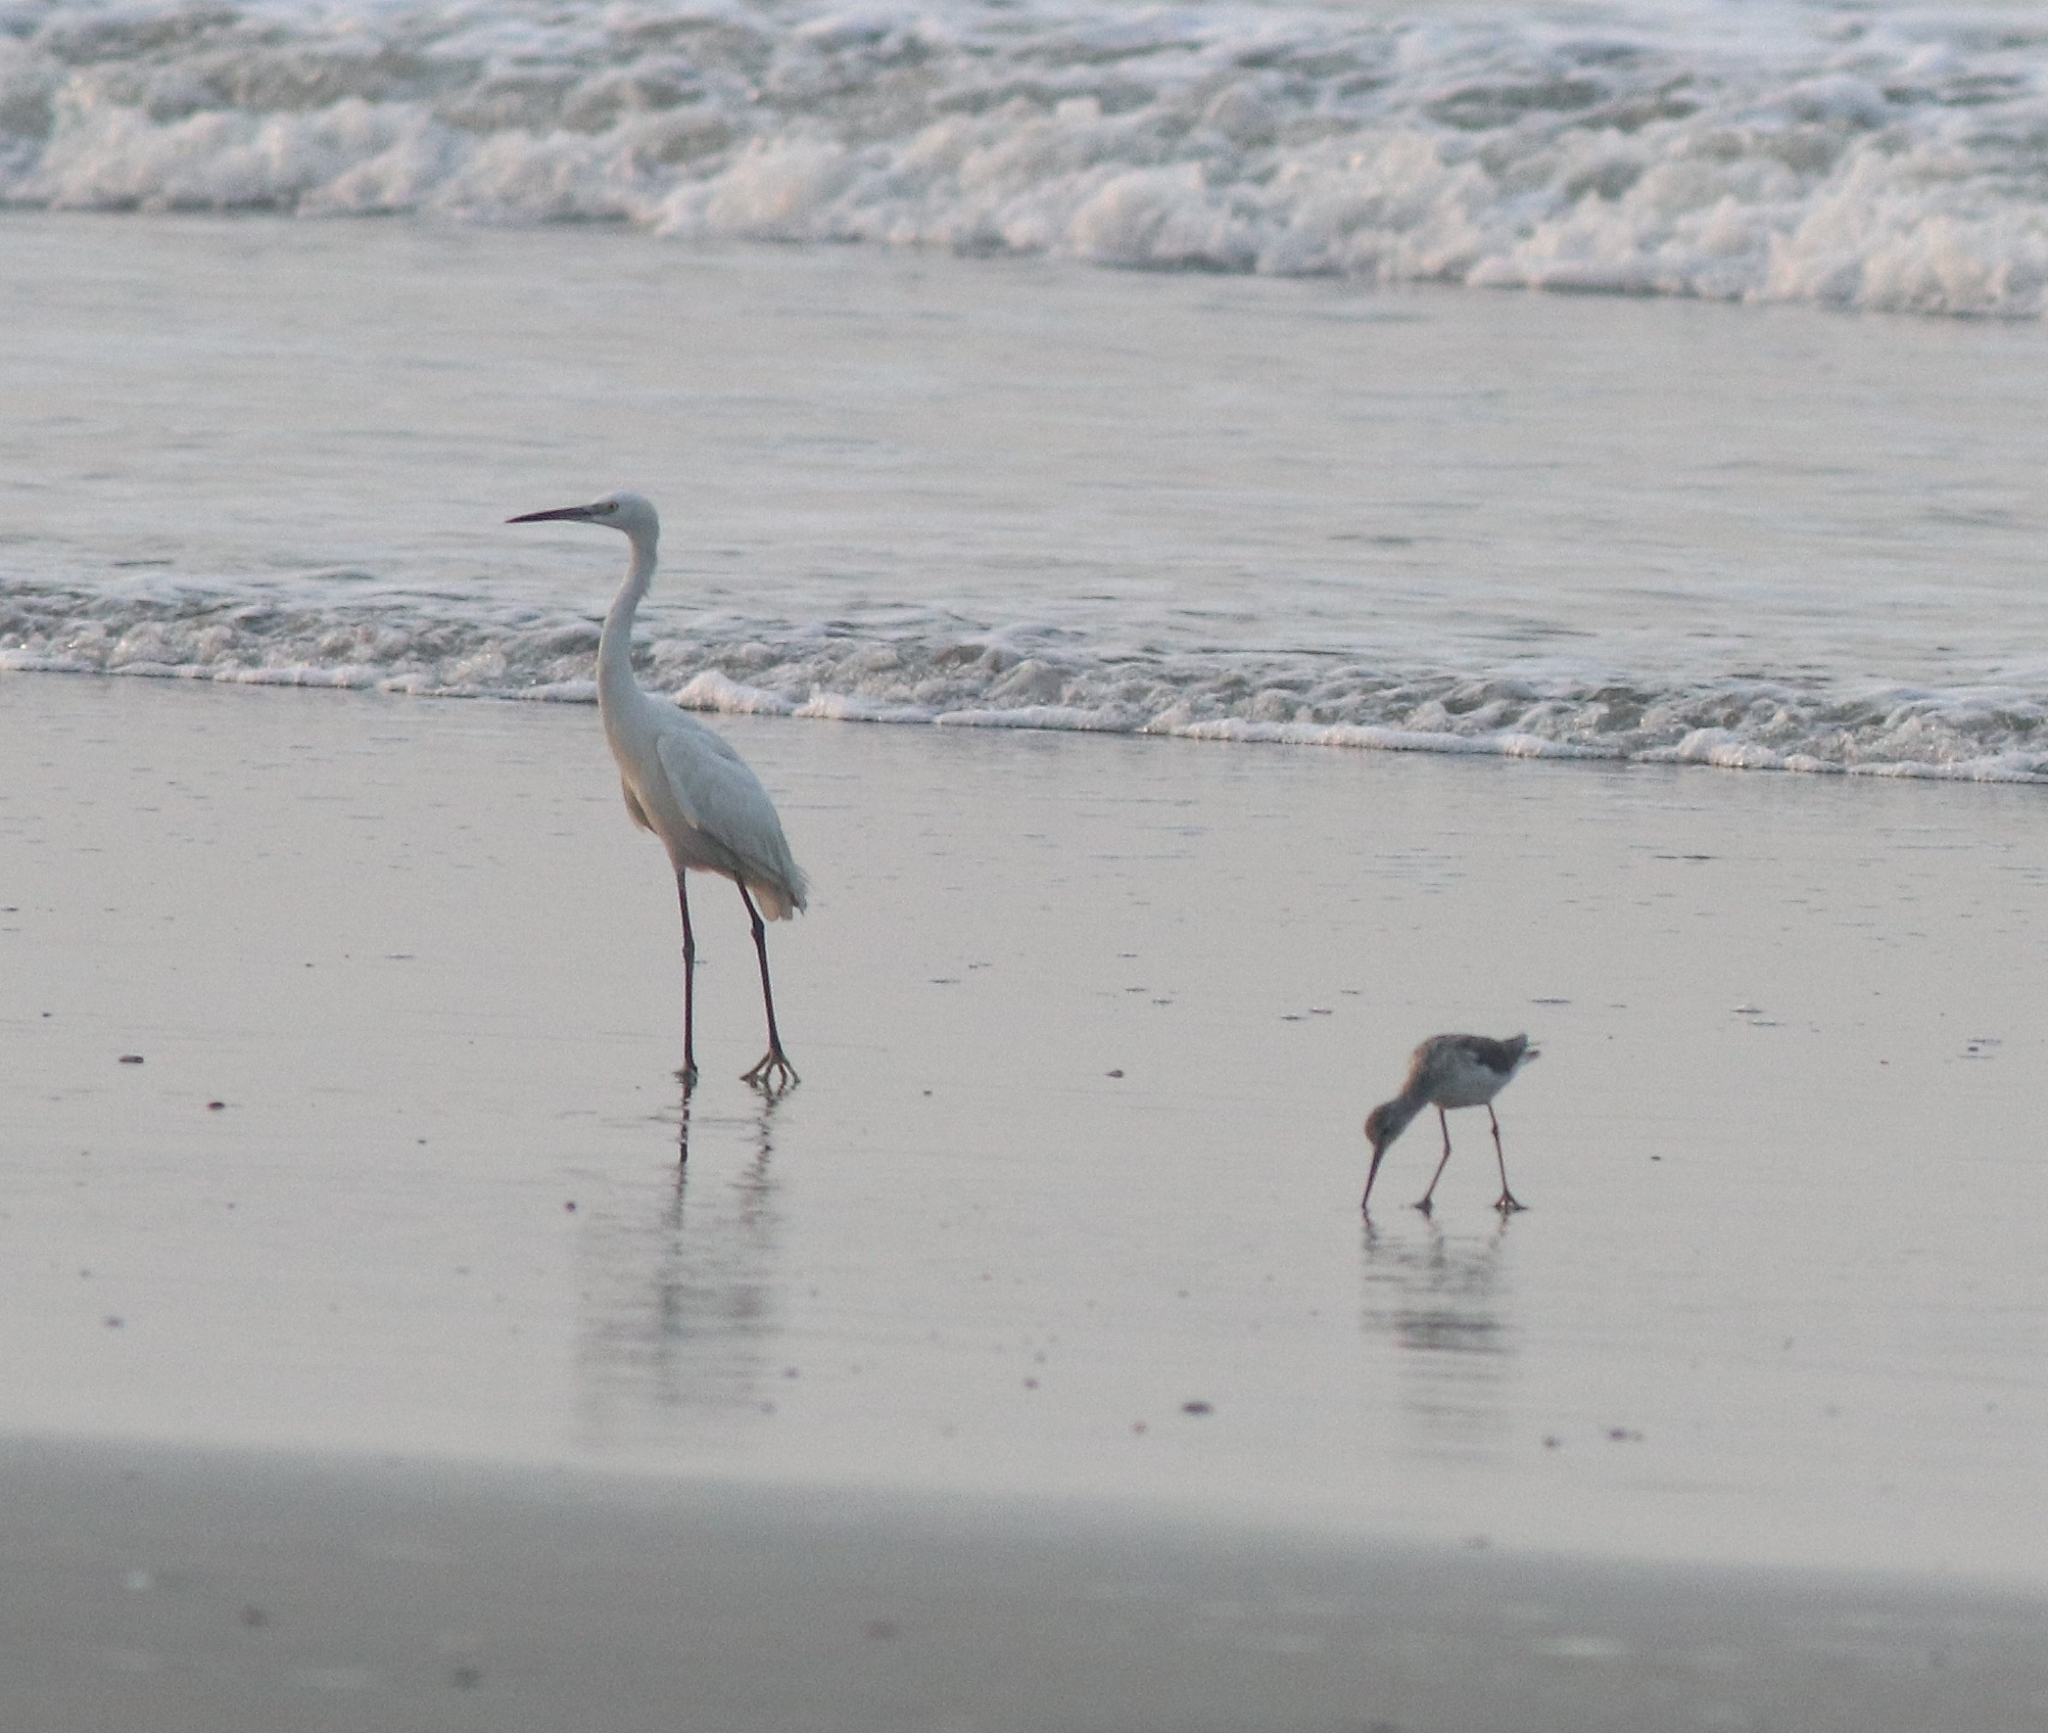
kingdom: Animalia
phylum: Chordata
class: Aves
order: Pelecaniformes
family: Ardeidae
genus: Egretta
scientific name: Egretta gularis
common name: Western reef-heron
